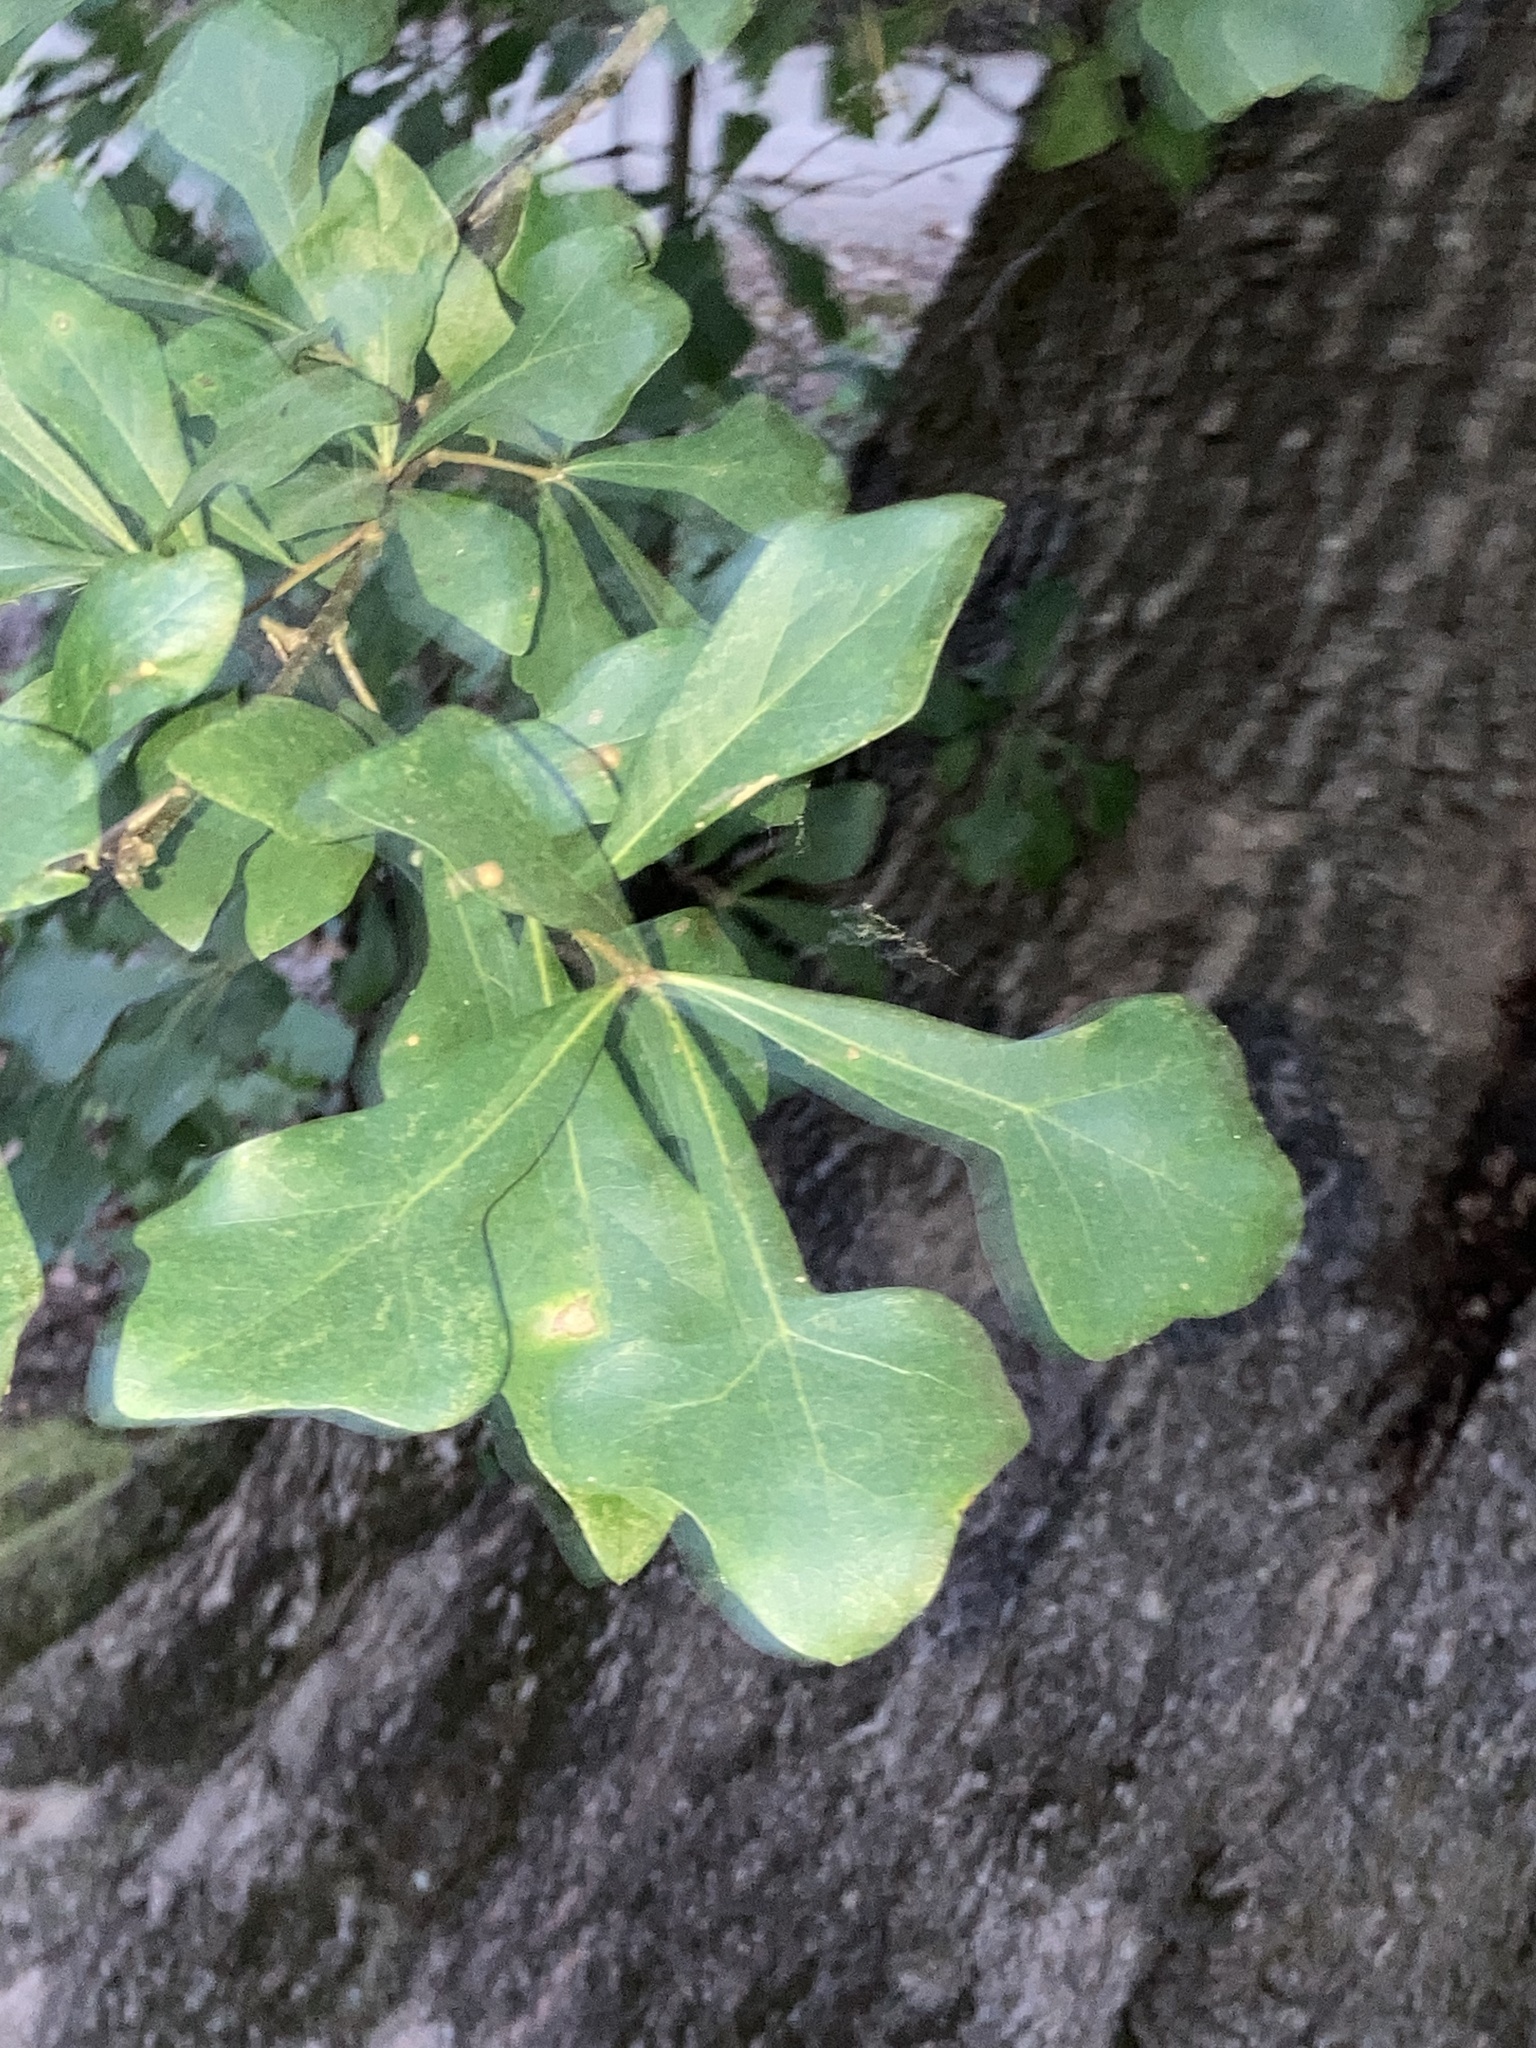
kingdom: Plantae
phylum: Tracheophyta
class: Magnoliopsida
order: Fagales
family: Fagaceae
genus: Quercus
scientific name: Quercus nigra
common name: Water oak
